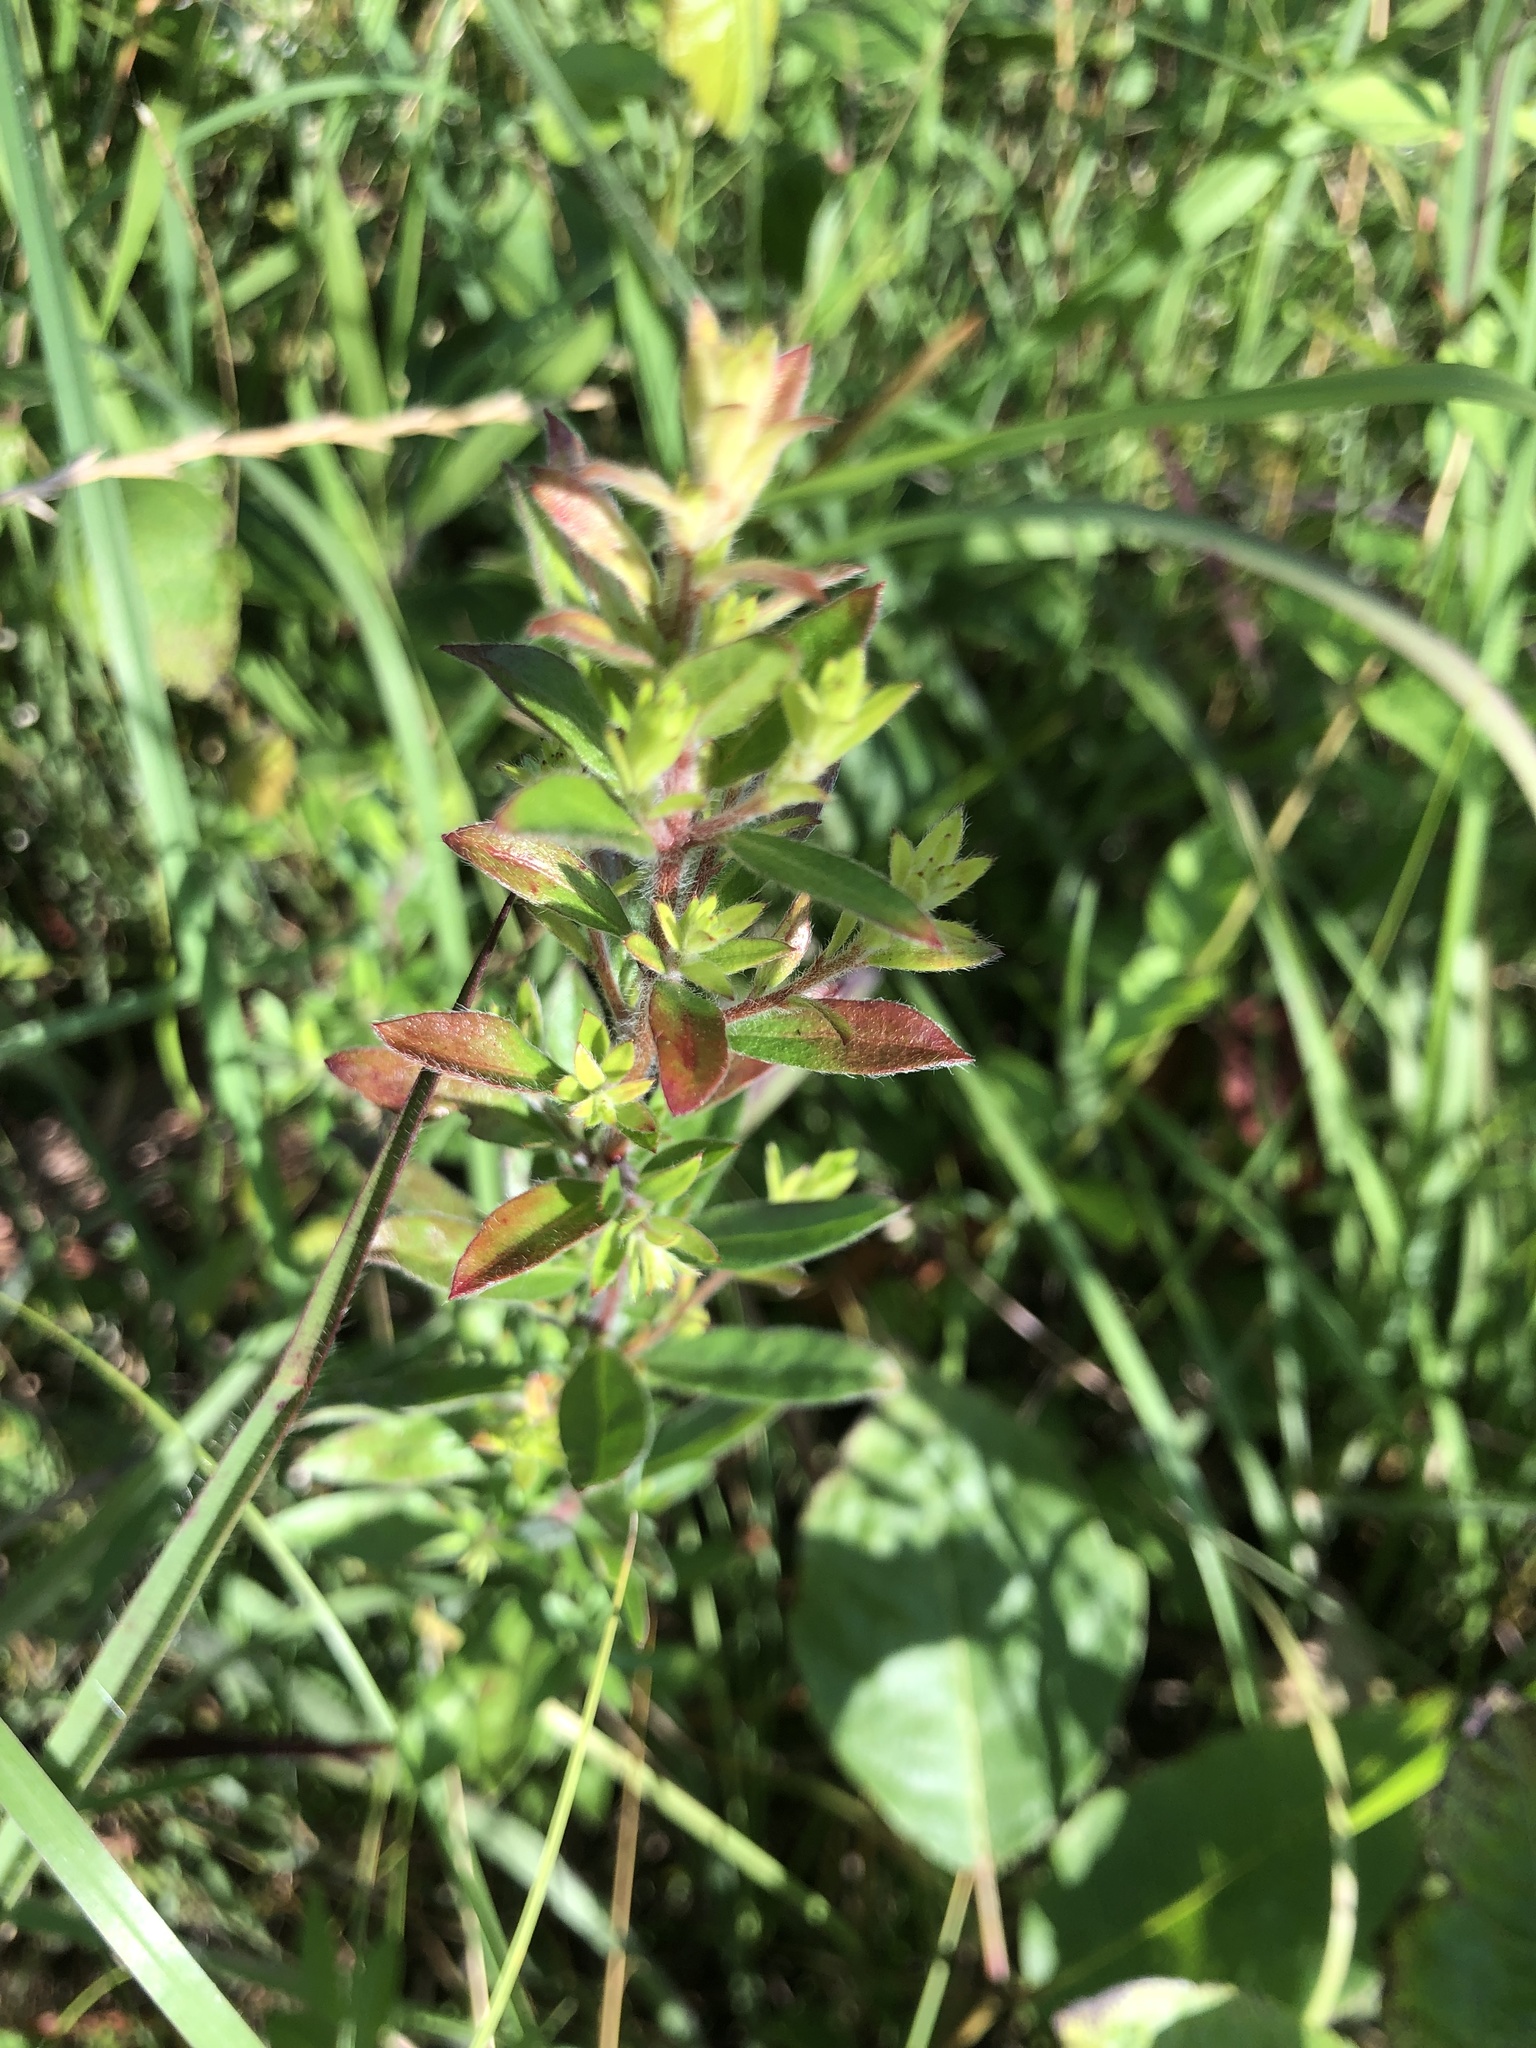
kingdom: Plantae
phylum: Tracheophyta
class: Magnoliopsida
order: Malvales
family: Cistaceae
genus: Lechea
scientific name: Lechea mucronata
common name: Hairy pinweed
